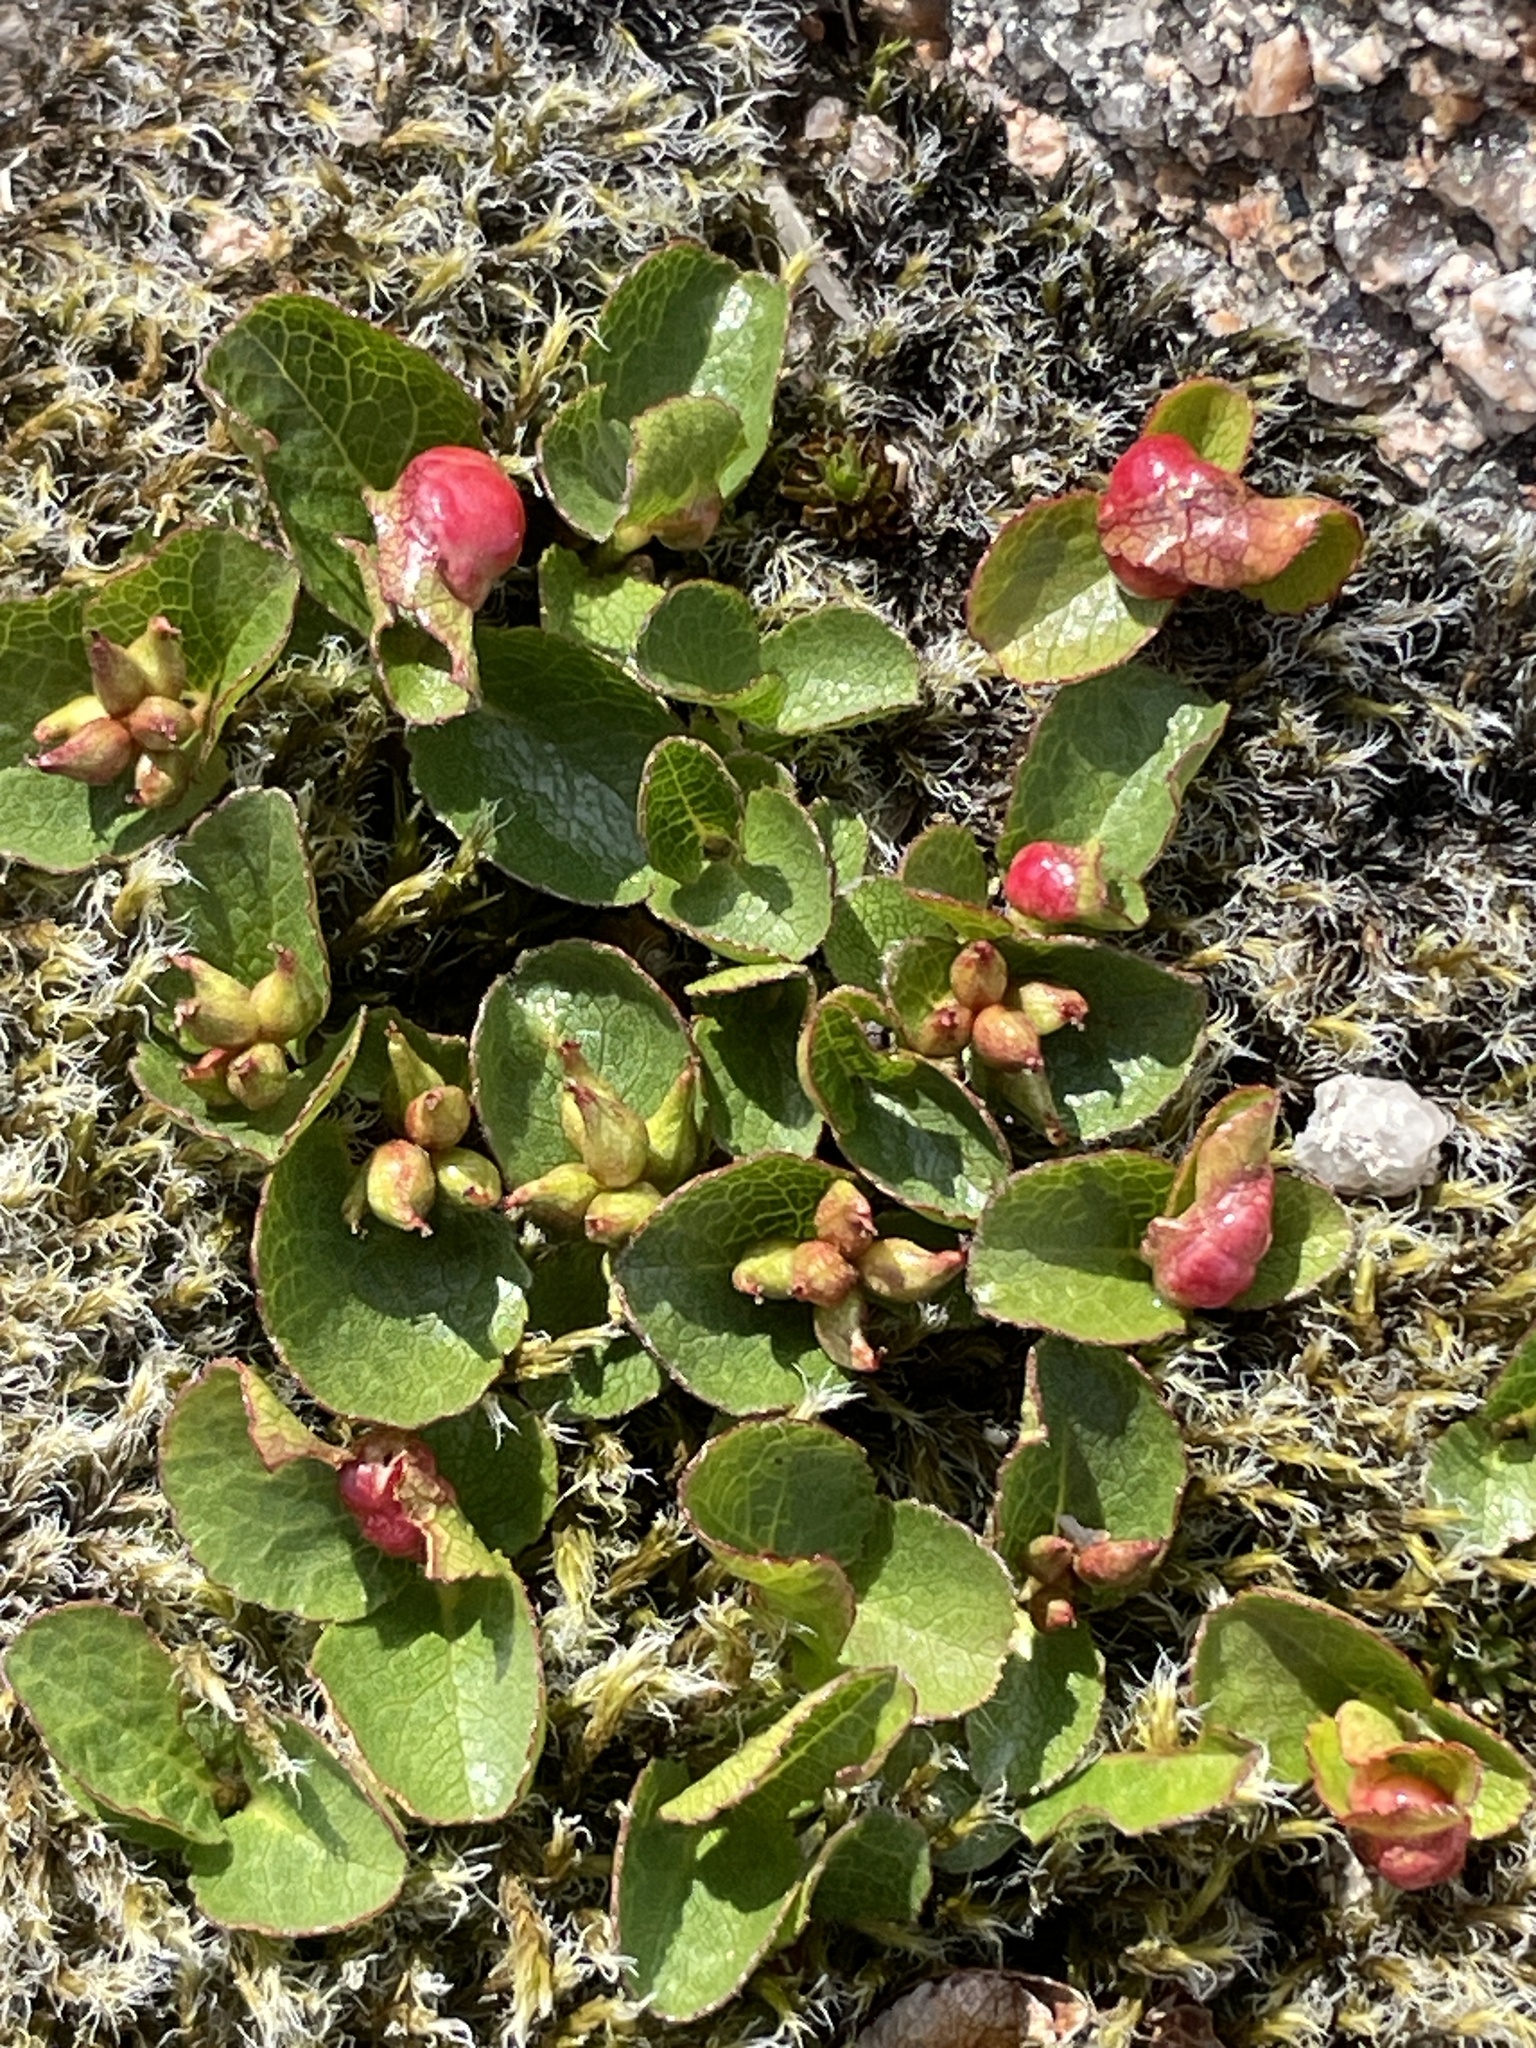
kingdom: Plantae
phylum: Tracheophyta
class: Magnoliopsida
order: Malpighiales
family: Salicaceae
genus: Salix
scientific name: Salix herbacea
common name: Dwarf willow
